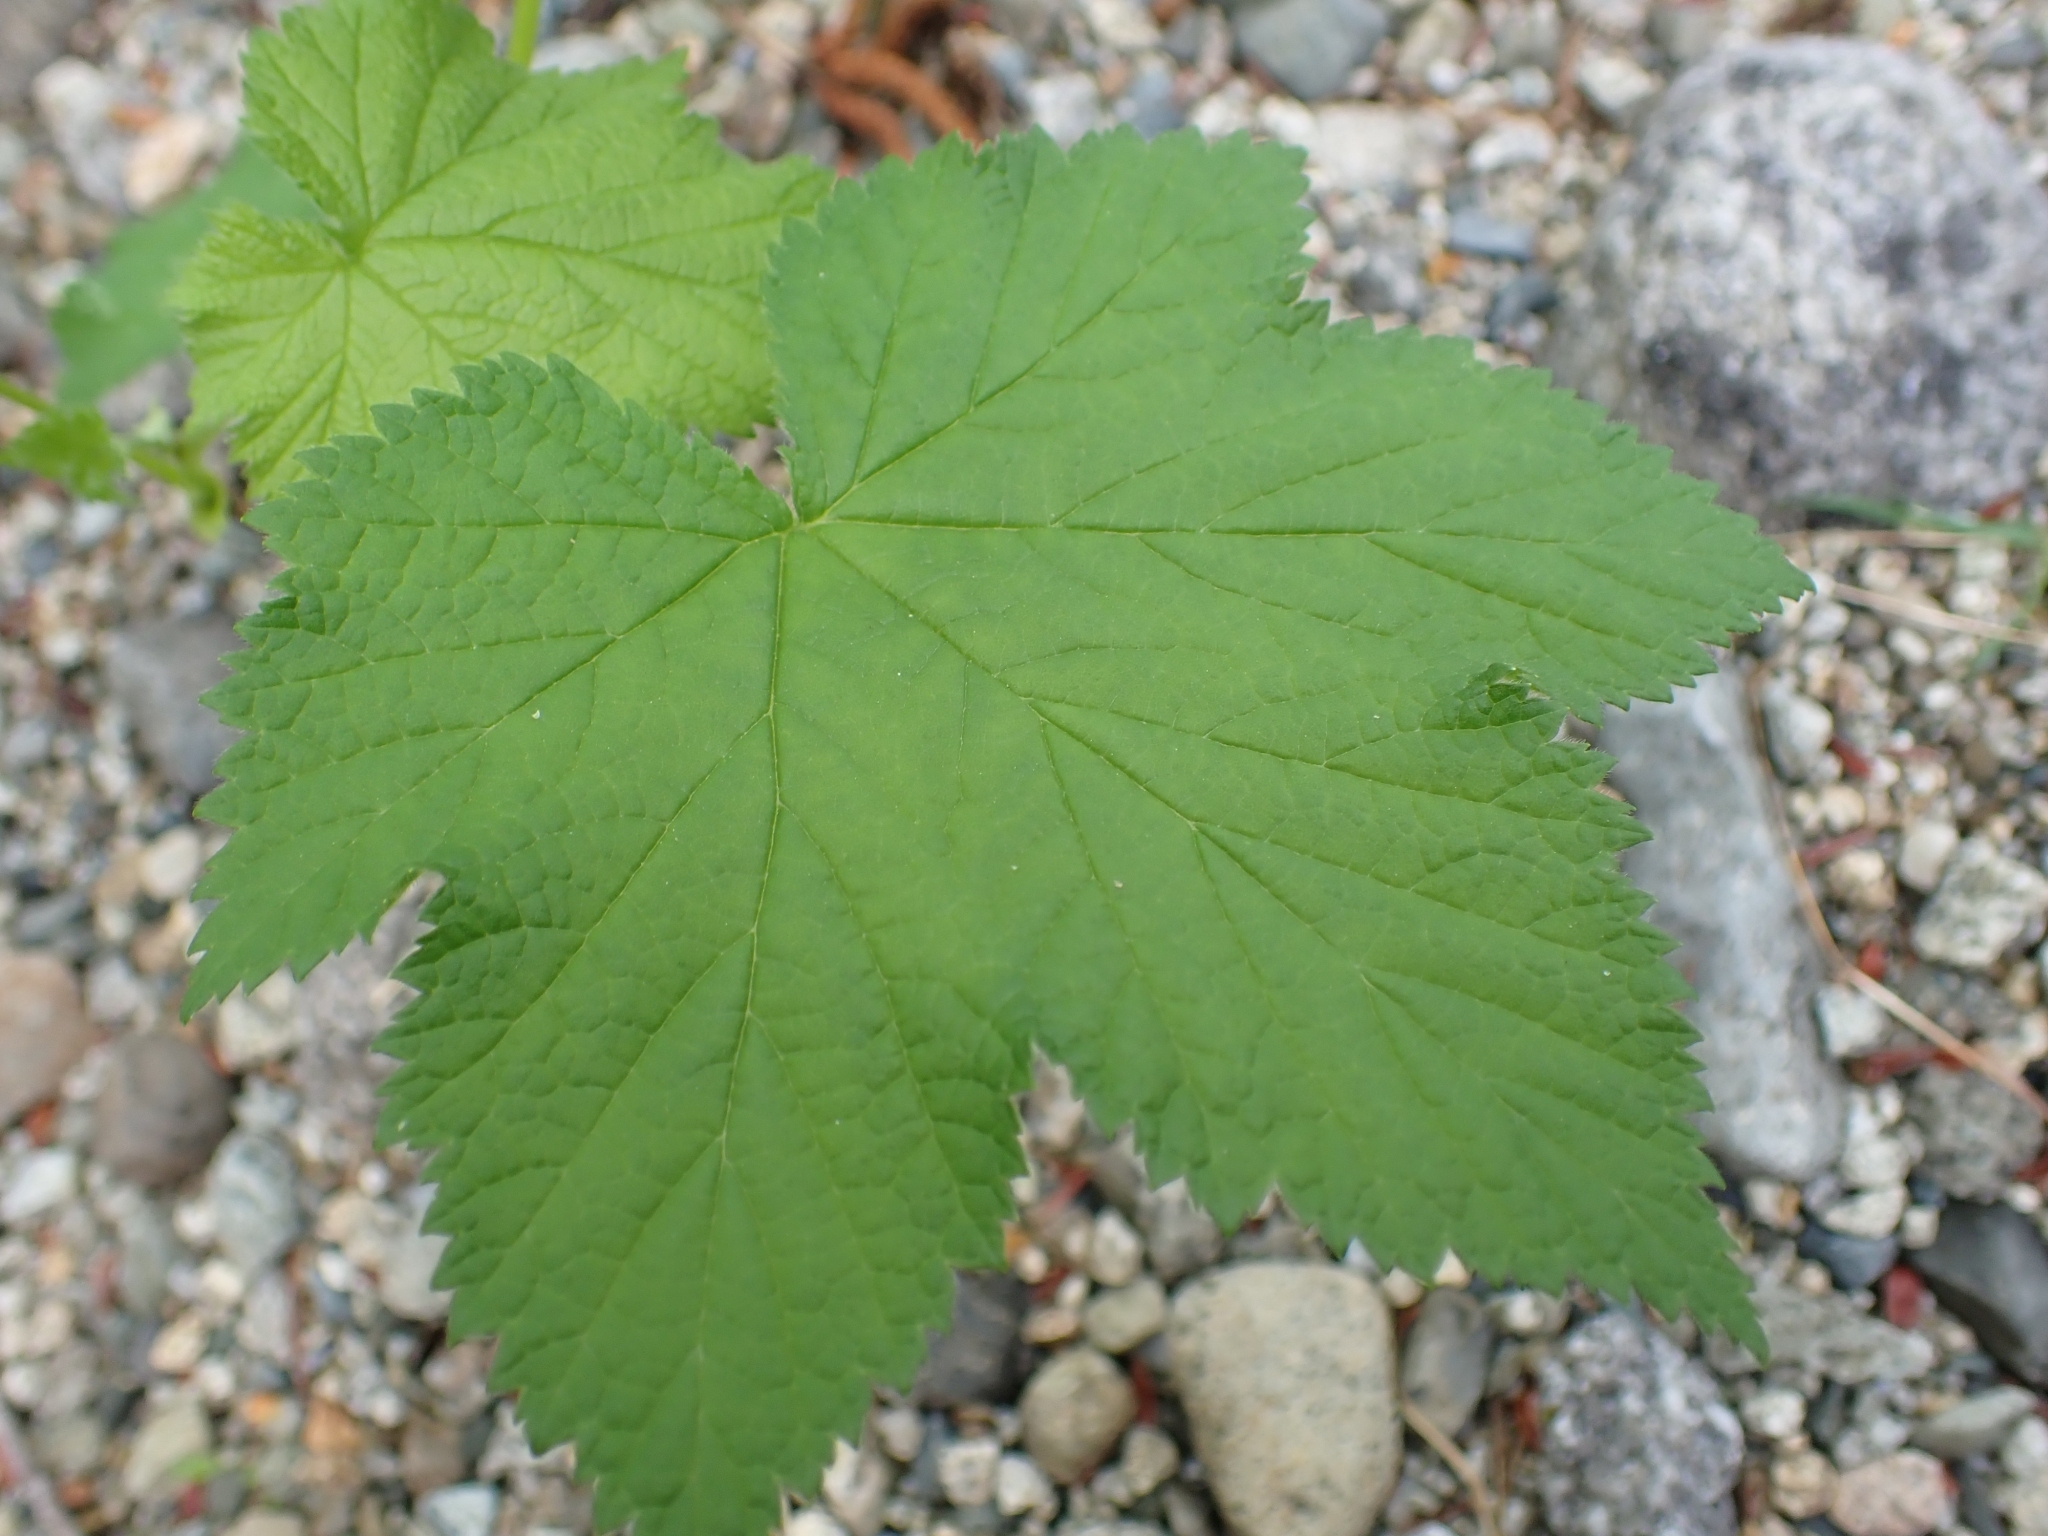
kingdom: Plantae
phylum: Tracheophyta
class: Magnoliopsida
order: Rosales
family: Rosaceae
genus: Rubus
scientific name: Rubus parviflorus
